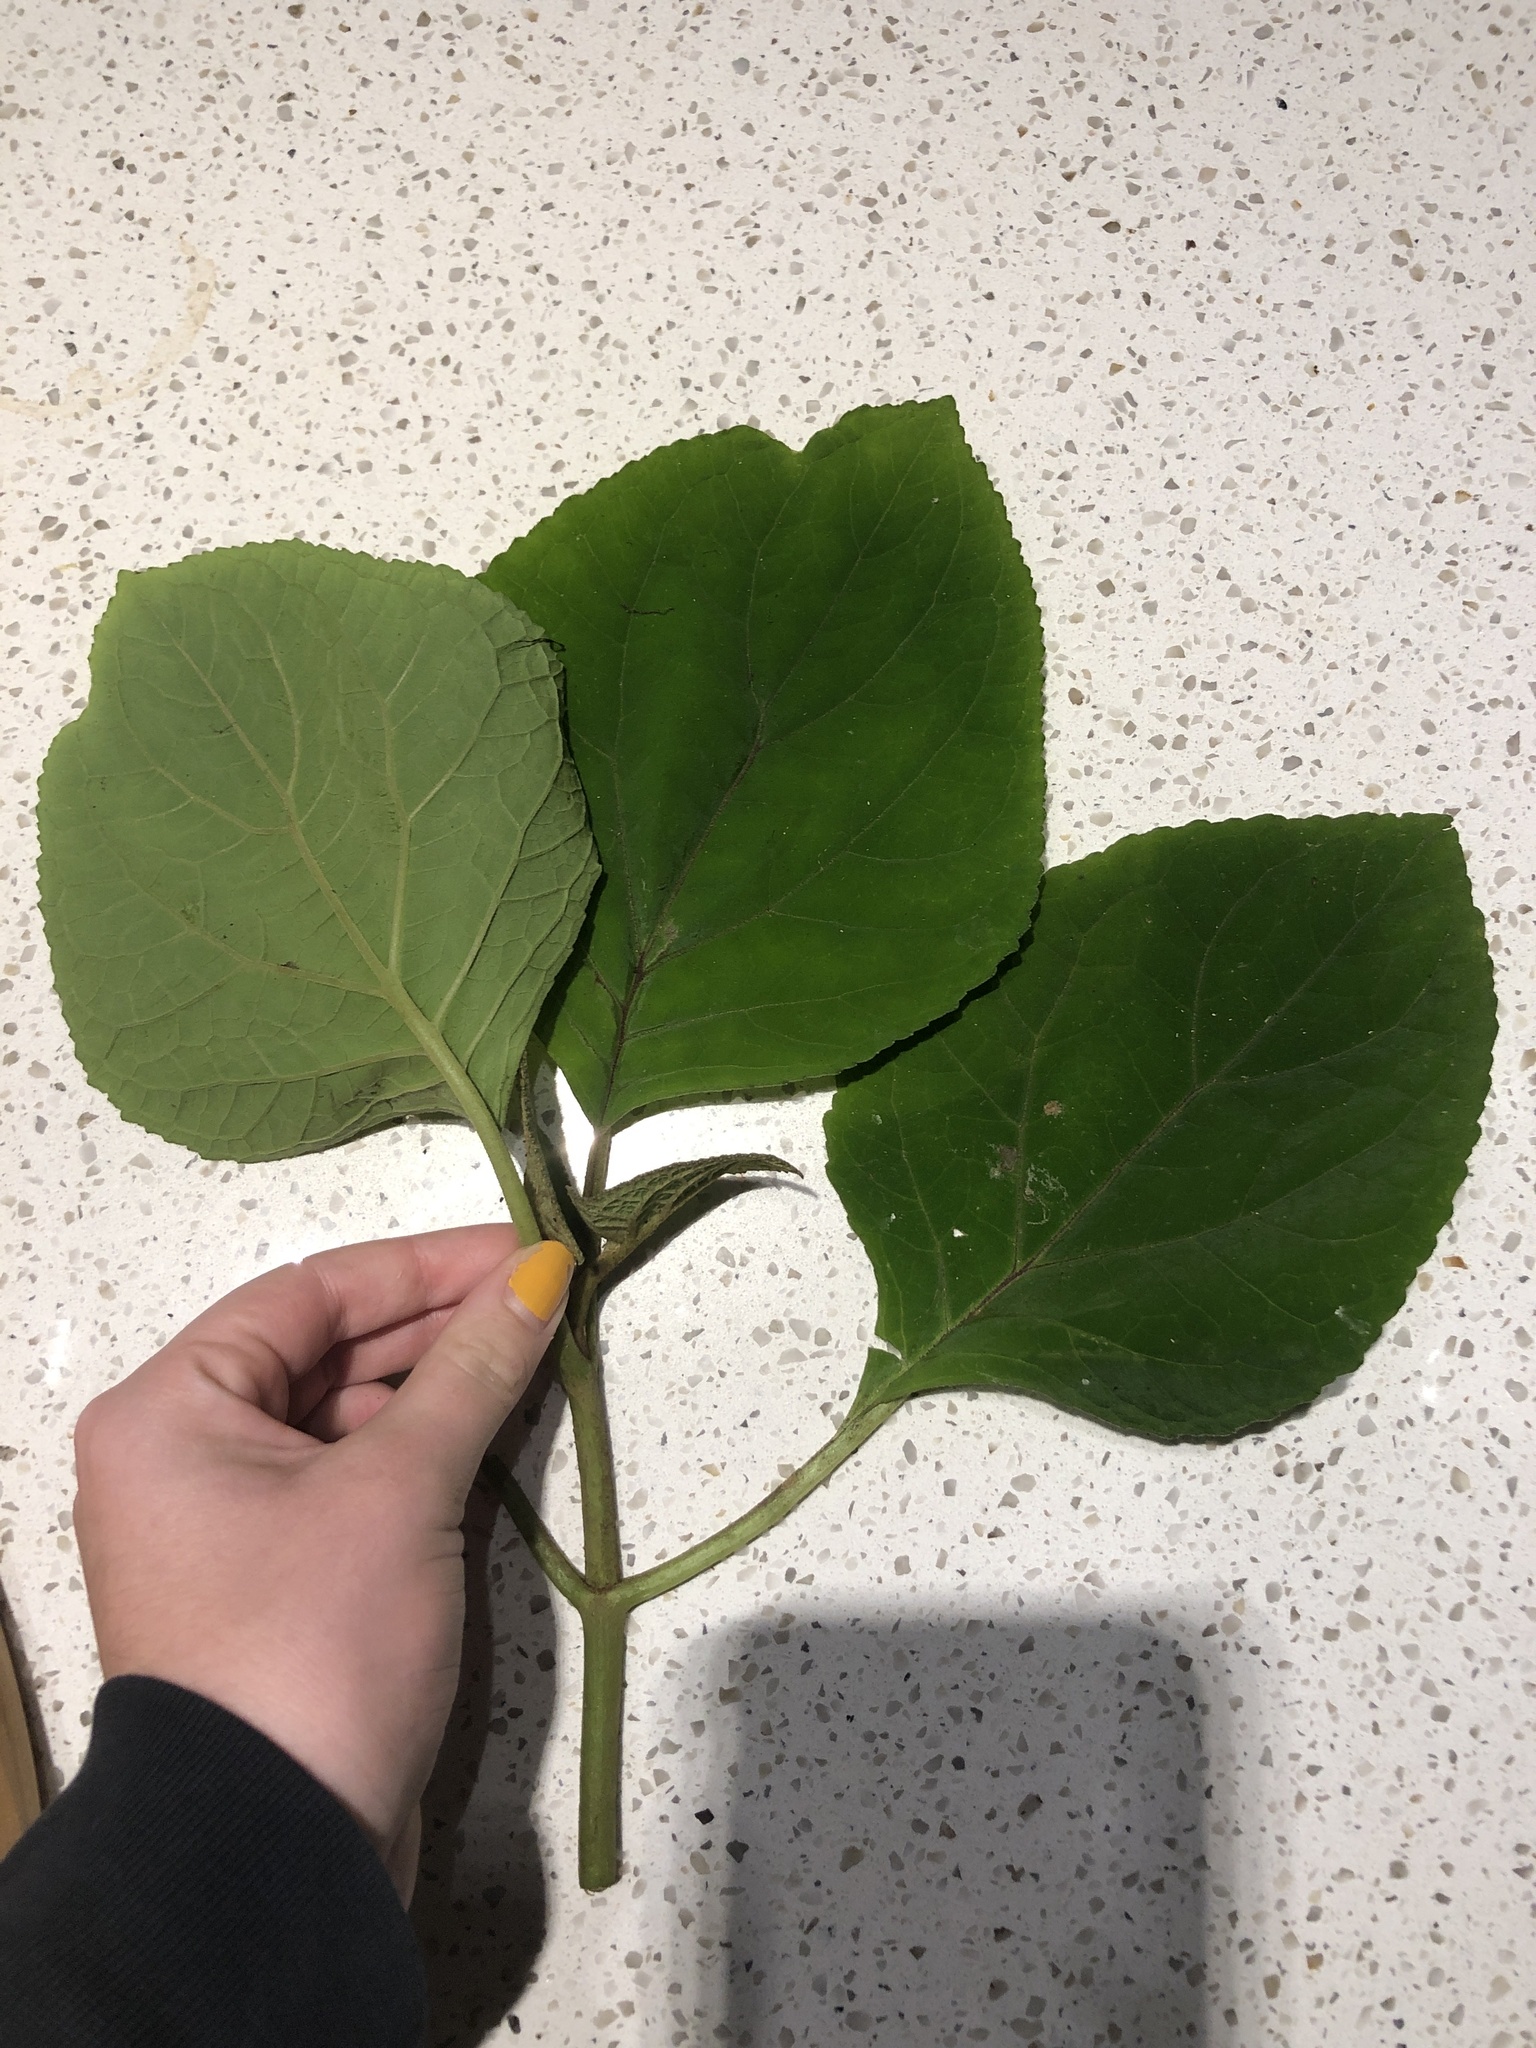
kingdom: Plantae
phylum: Tracheophyta
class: Magnoliopsida
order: Asterales
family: Asteraceae
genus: Bartlettina
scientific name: Bartlettina sordida
